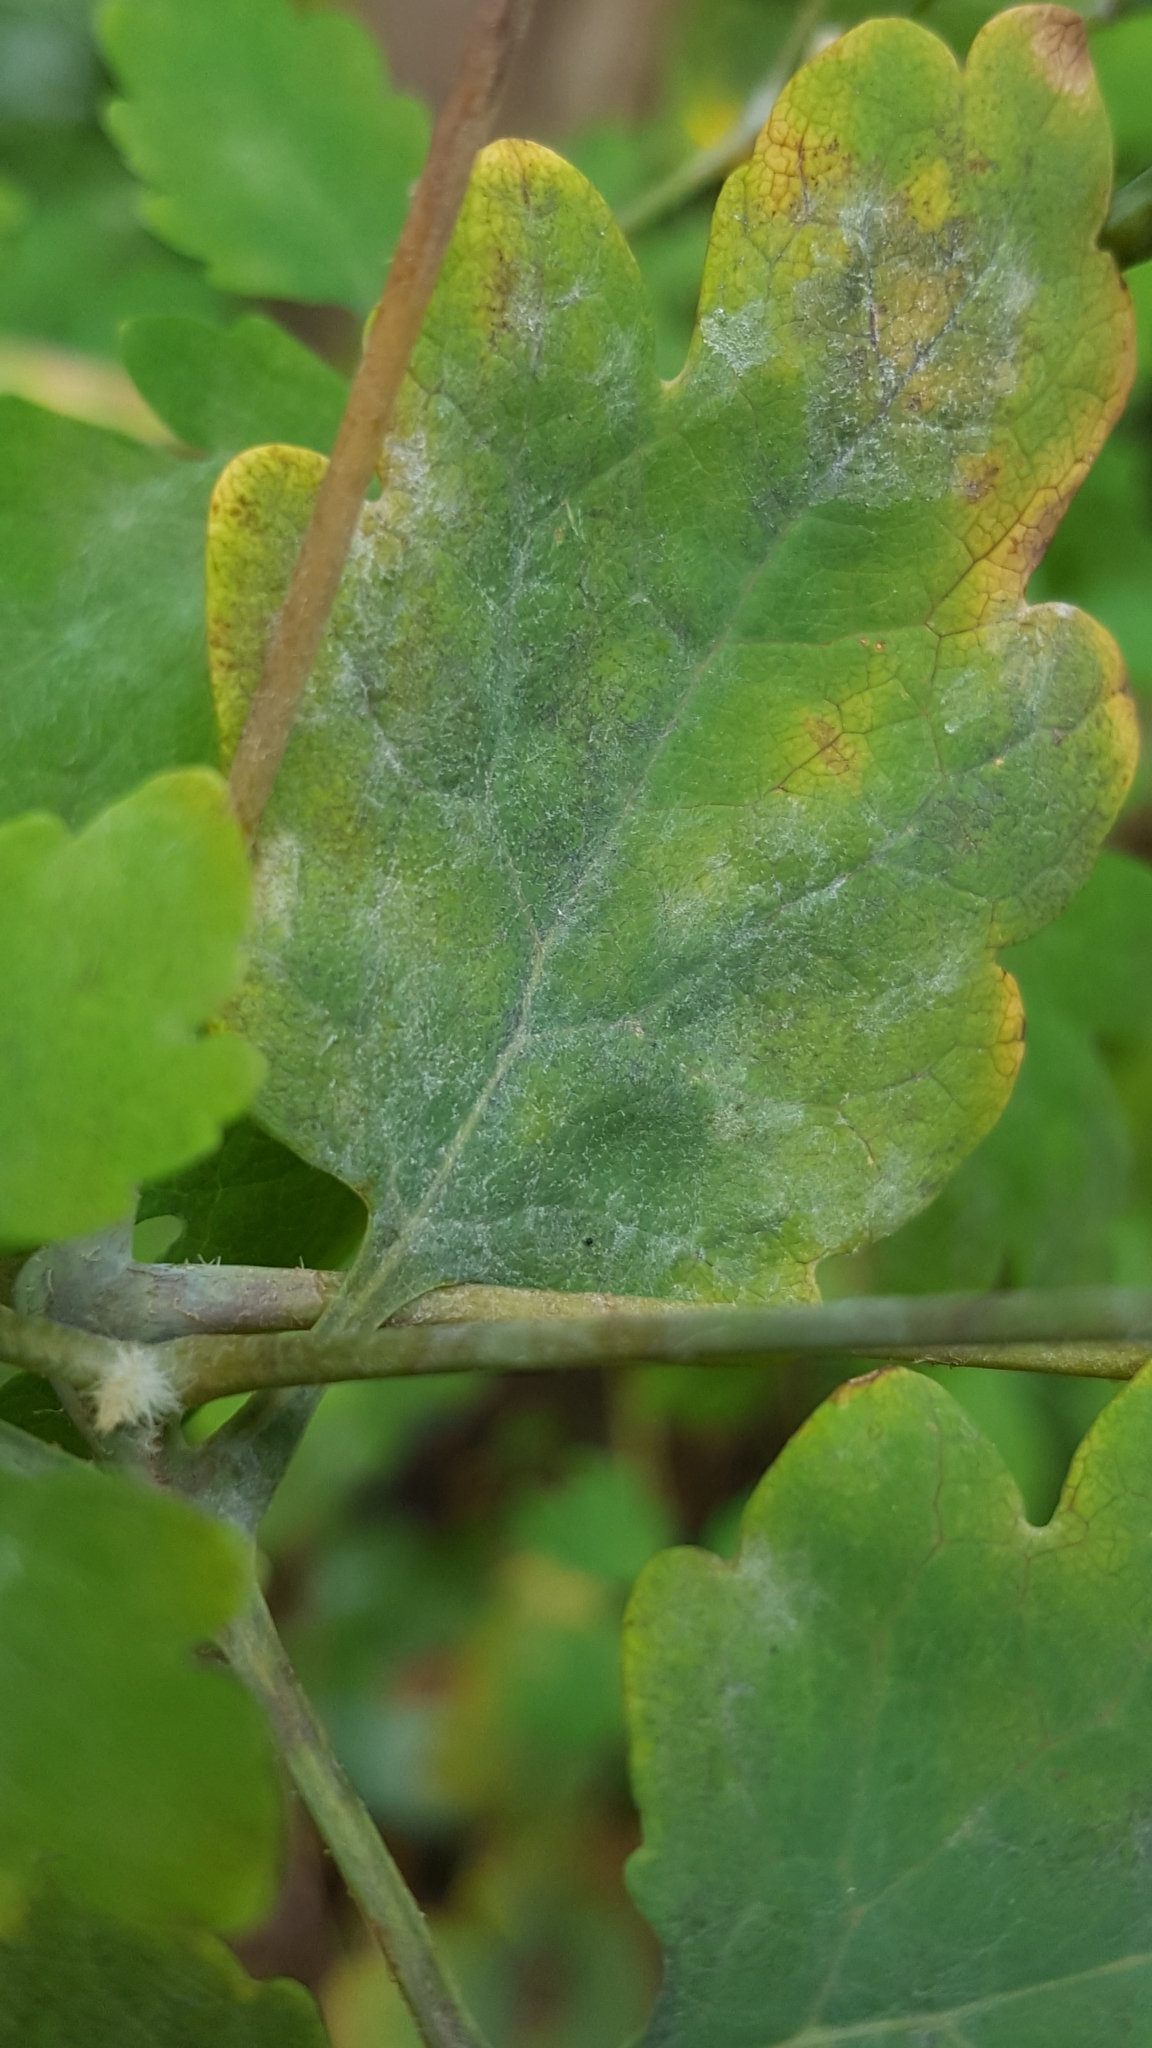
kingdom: Fungi
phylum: Ascomycota
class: Leotiomycetes
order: Helotiales
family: Erysiphaceae
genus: Erysiphe
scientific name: Erysiphe macleayae
